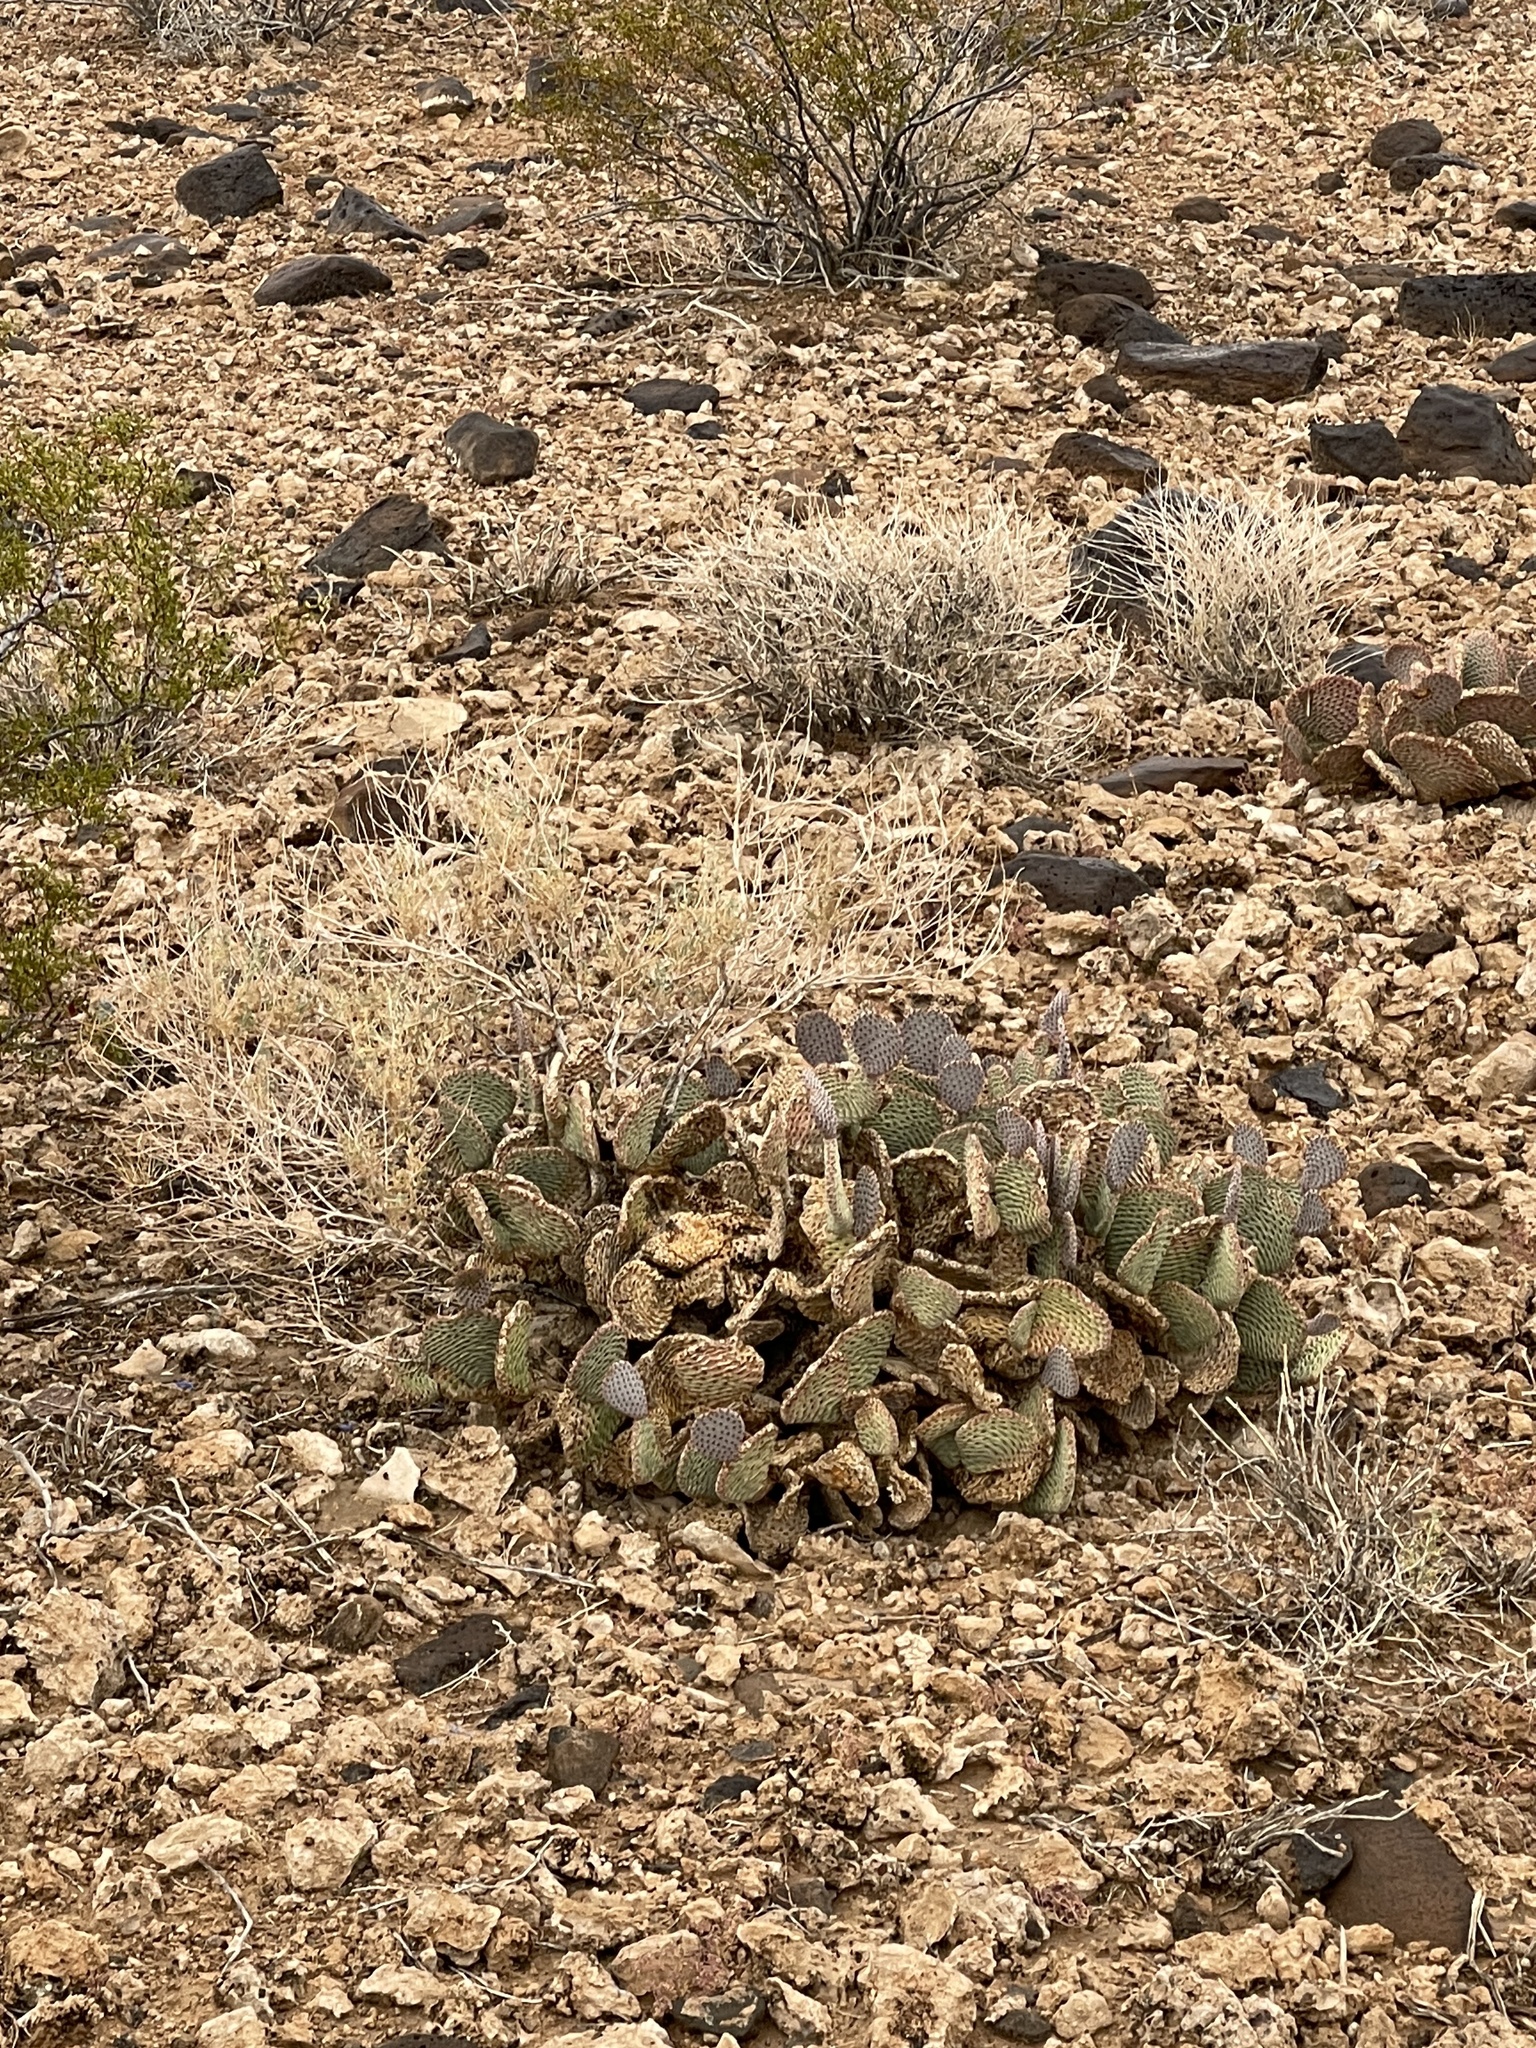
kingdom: Plantae
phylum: Tracheophyta
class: Magnoliopsida
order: Caryophyllales
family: Cactaceae
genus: Opuntia
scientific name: Opuntia basilaris
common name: Beavertail prickly-pear
